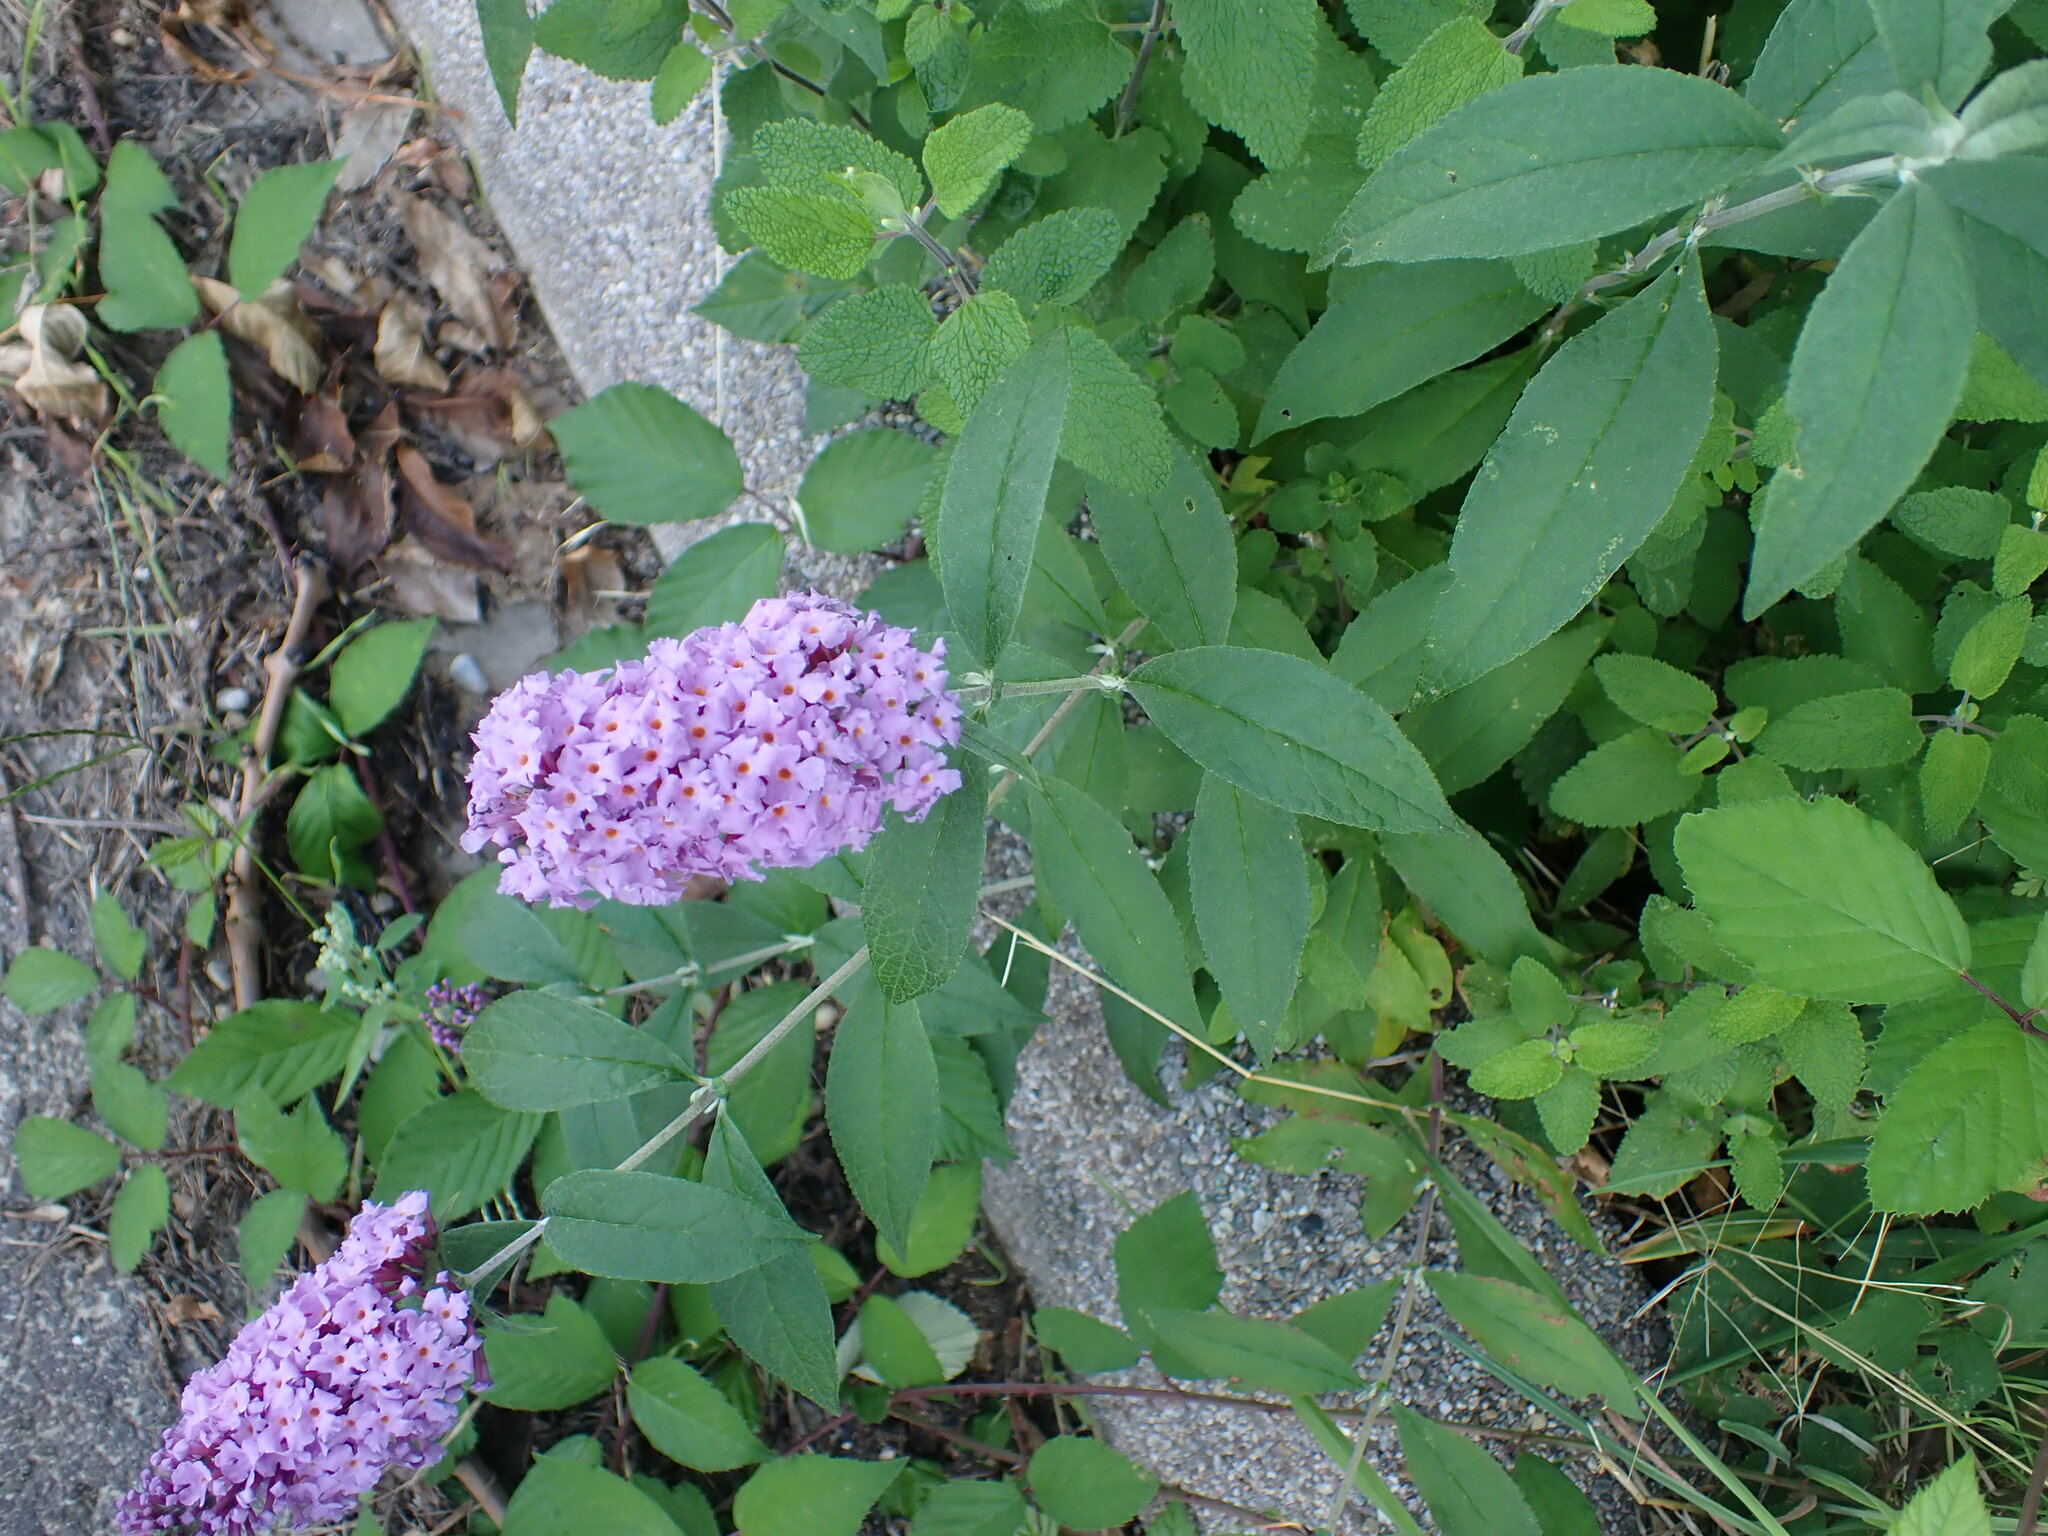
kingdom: Plantae
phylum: Tracheophyta
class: Magnoliopsida
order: Lamiales
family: Scrophulariaceae
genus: Buddleja
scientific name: Buddleja davidii
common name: Butterfly-bush
